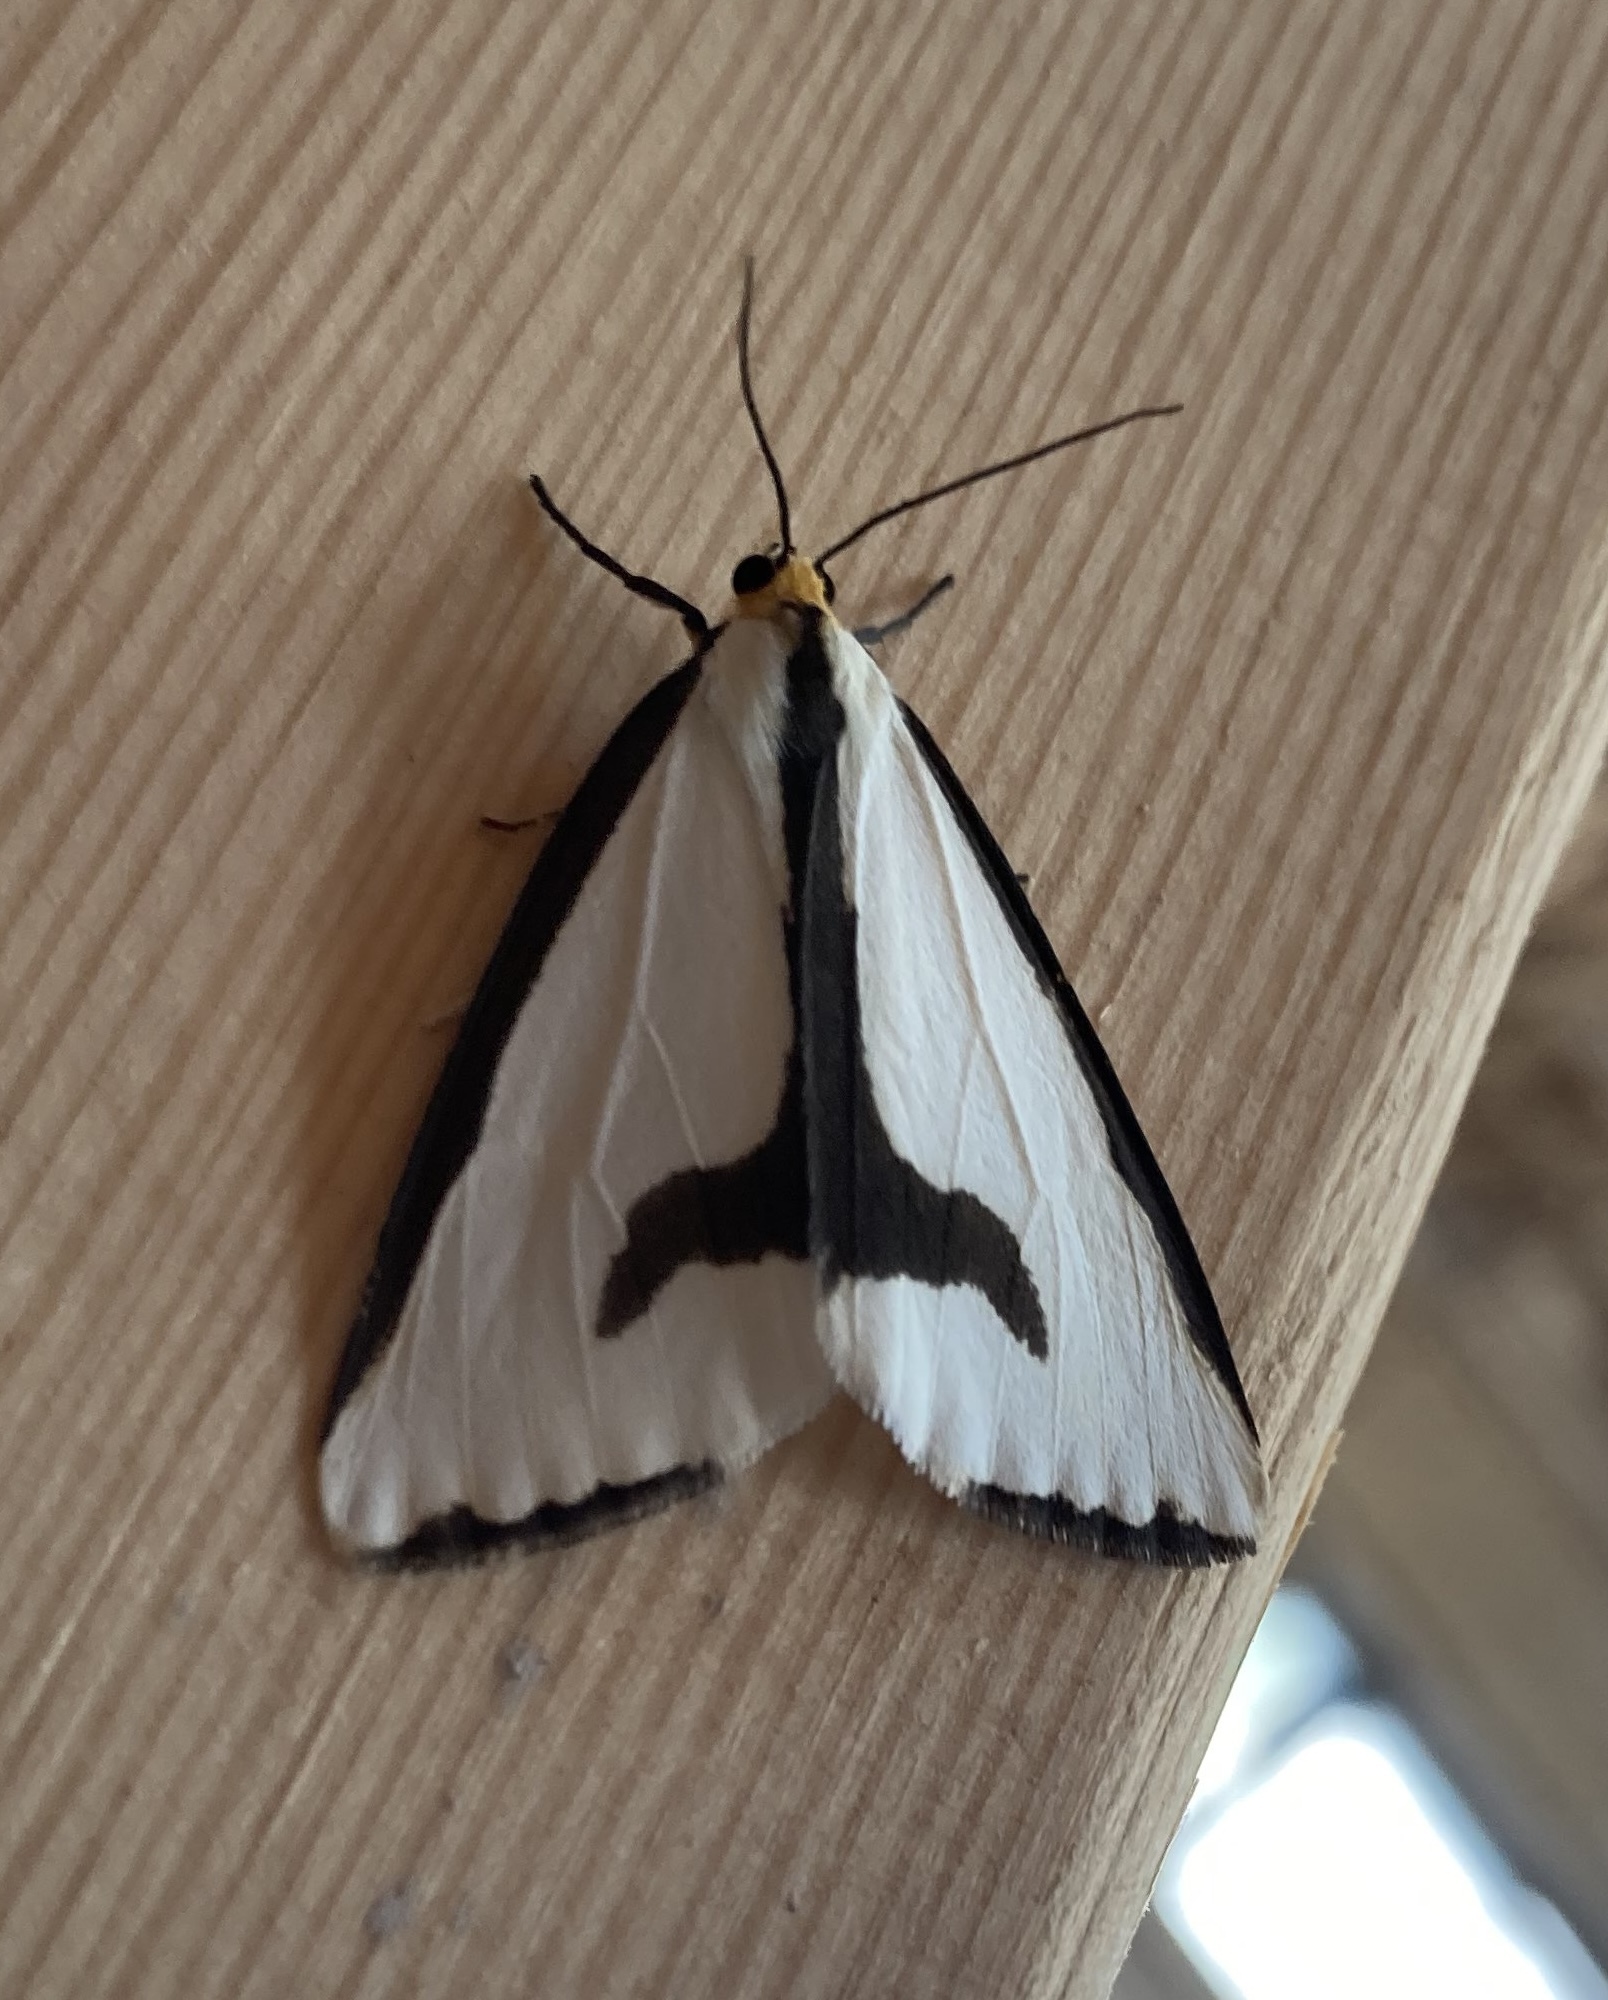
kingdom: Animalia
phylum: Arthropoda
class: Insecta
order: Lepidoptera
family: Erebidae
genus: Haploa
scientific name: Haploa lecontei
